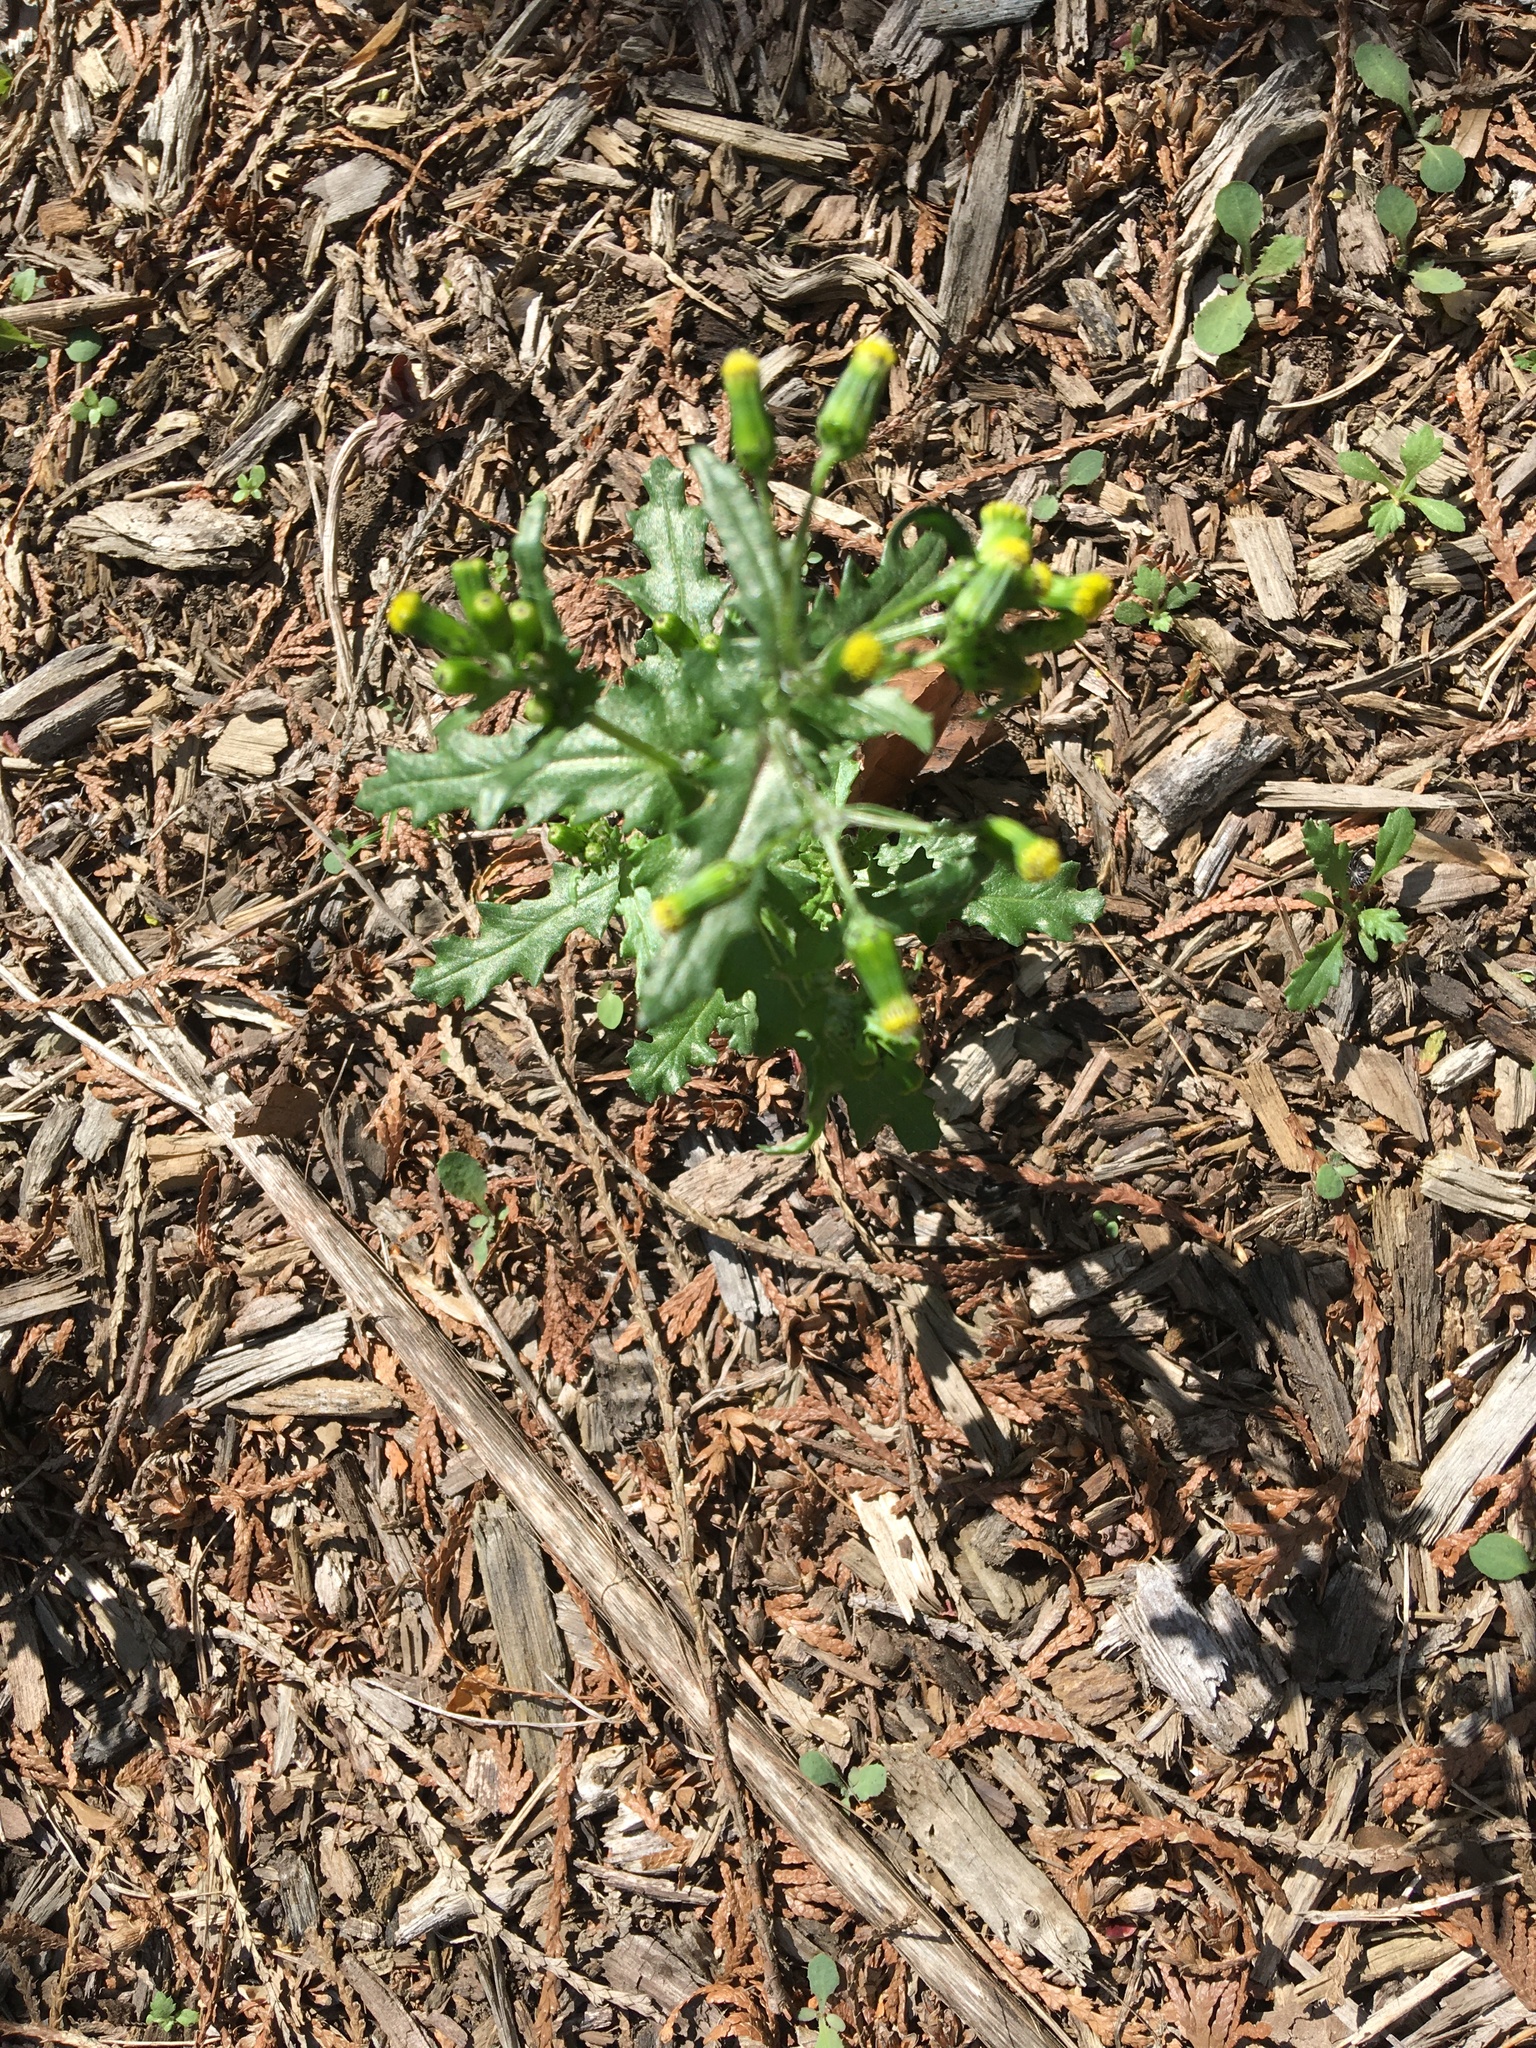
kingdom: Plantae
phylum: Tracheophyta
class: Magnoliopsida
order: Asterales
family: Asteraceae
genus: Senecio
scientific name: Senecio vulgaris
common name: Old-man-in-the-spring
